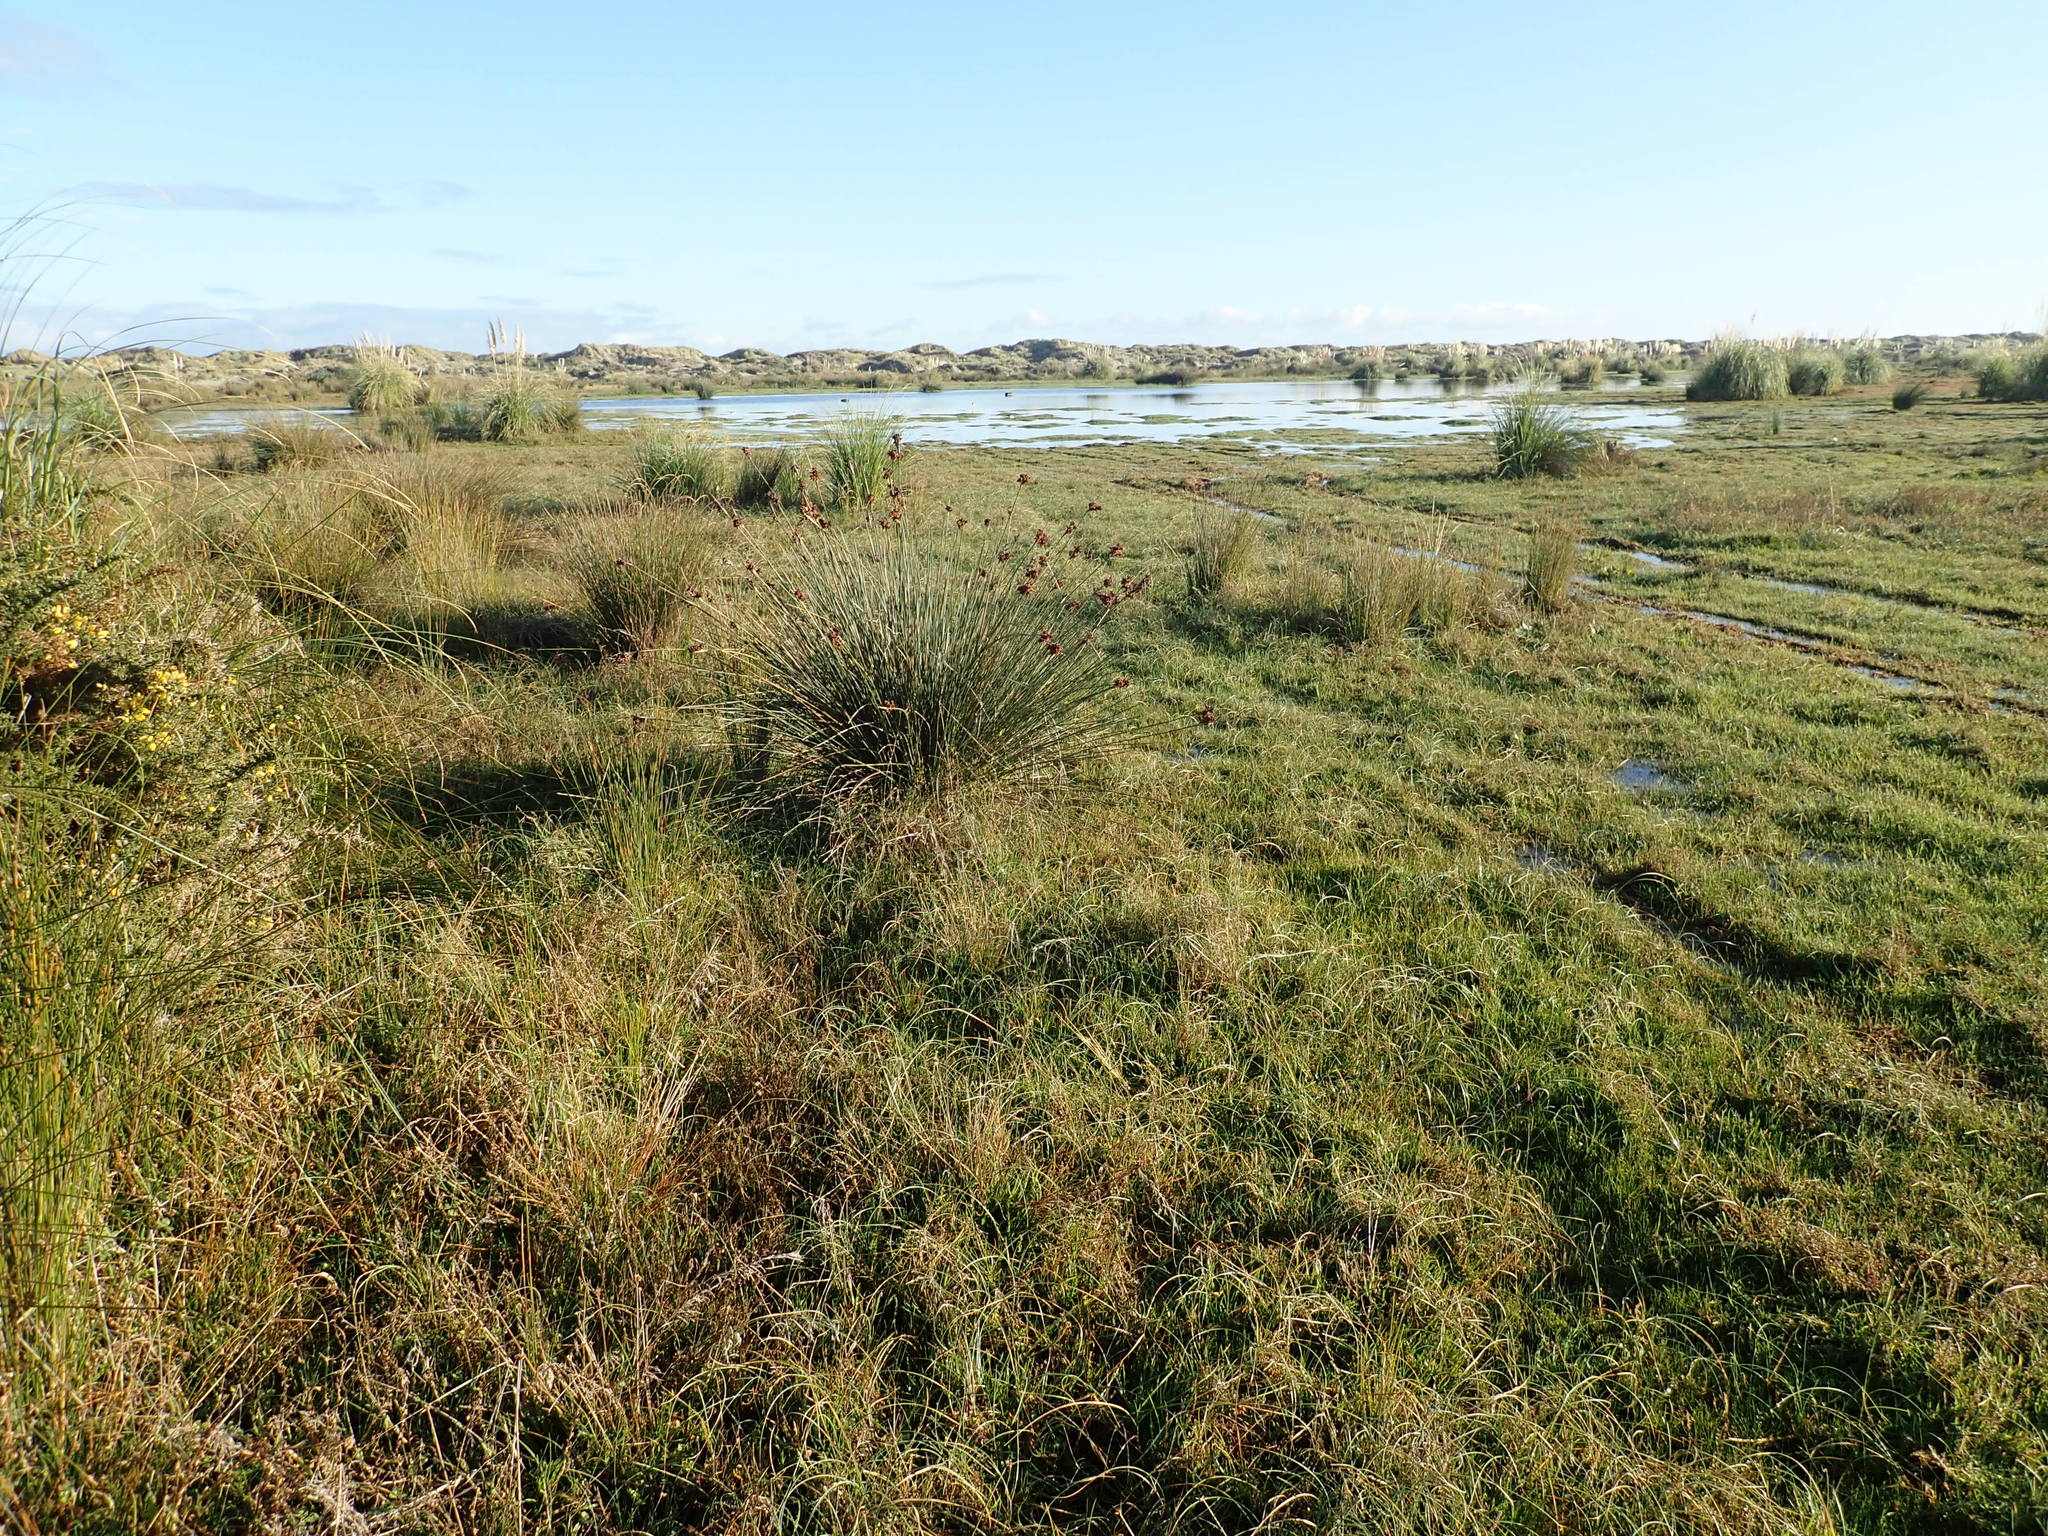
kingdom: Plantae
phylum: Tracheophyta
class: Liliopsida
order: Poales
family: Juncaceae
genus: Juncus
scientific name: Juncus acutus
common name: Sharp rush
